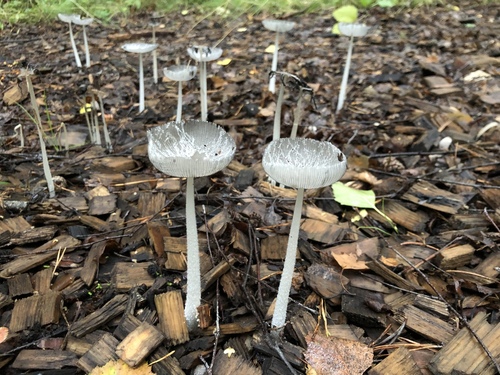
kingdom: Fungi
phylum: Basidiomycota
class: Agaricomycetes
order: Agaricales
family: Agaricaceae
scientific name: Agaricaceae
